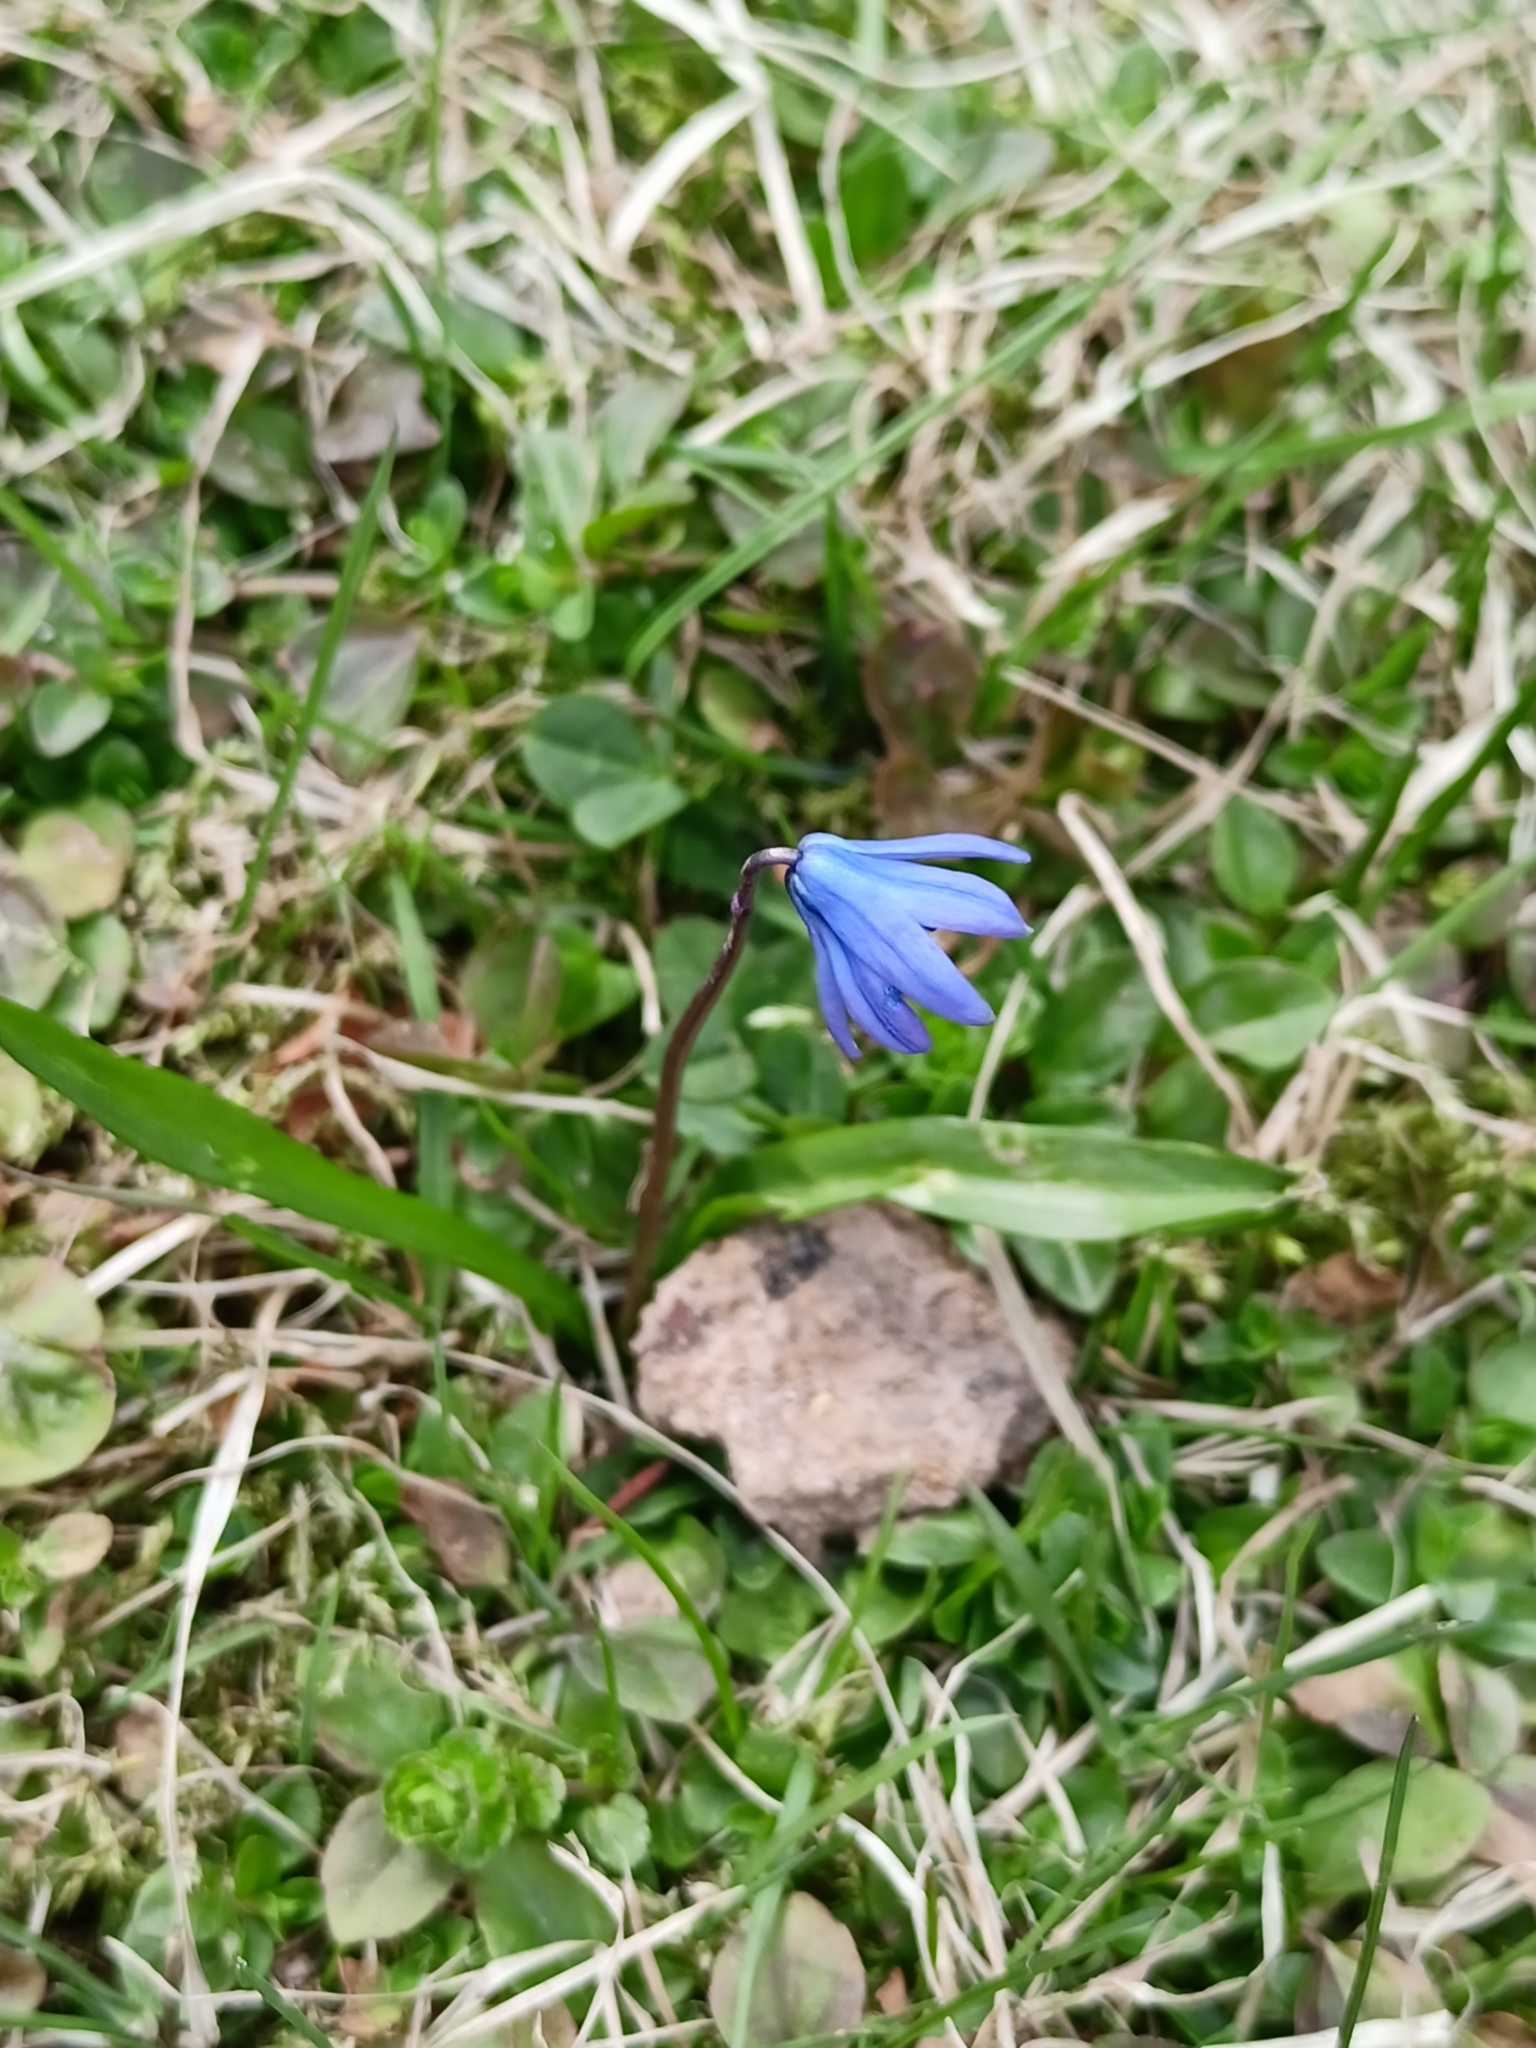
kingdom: Plantae
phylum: Tracheophyta
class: Liliopsida
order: Asparagales
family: Asparagaceae
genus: Scilla
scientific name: Scilla siberica
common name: Siberian squill
